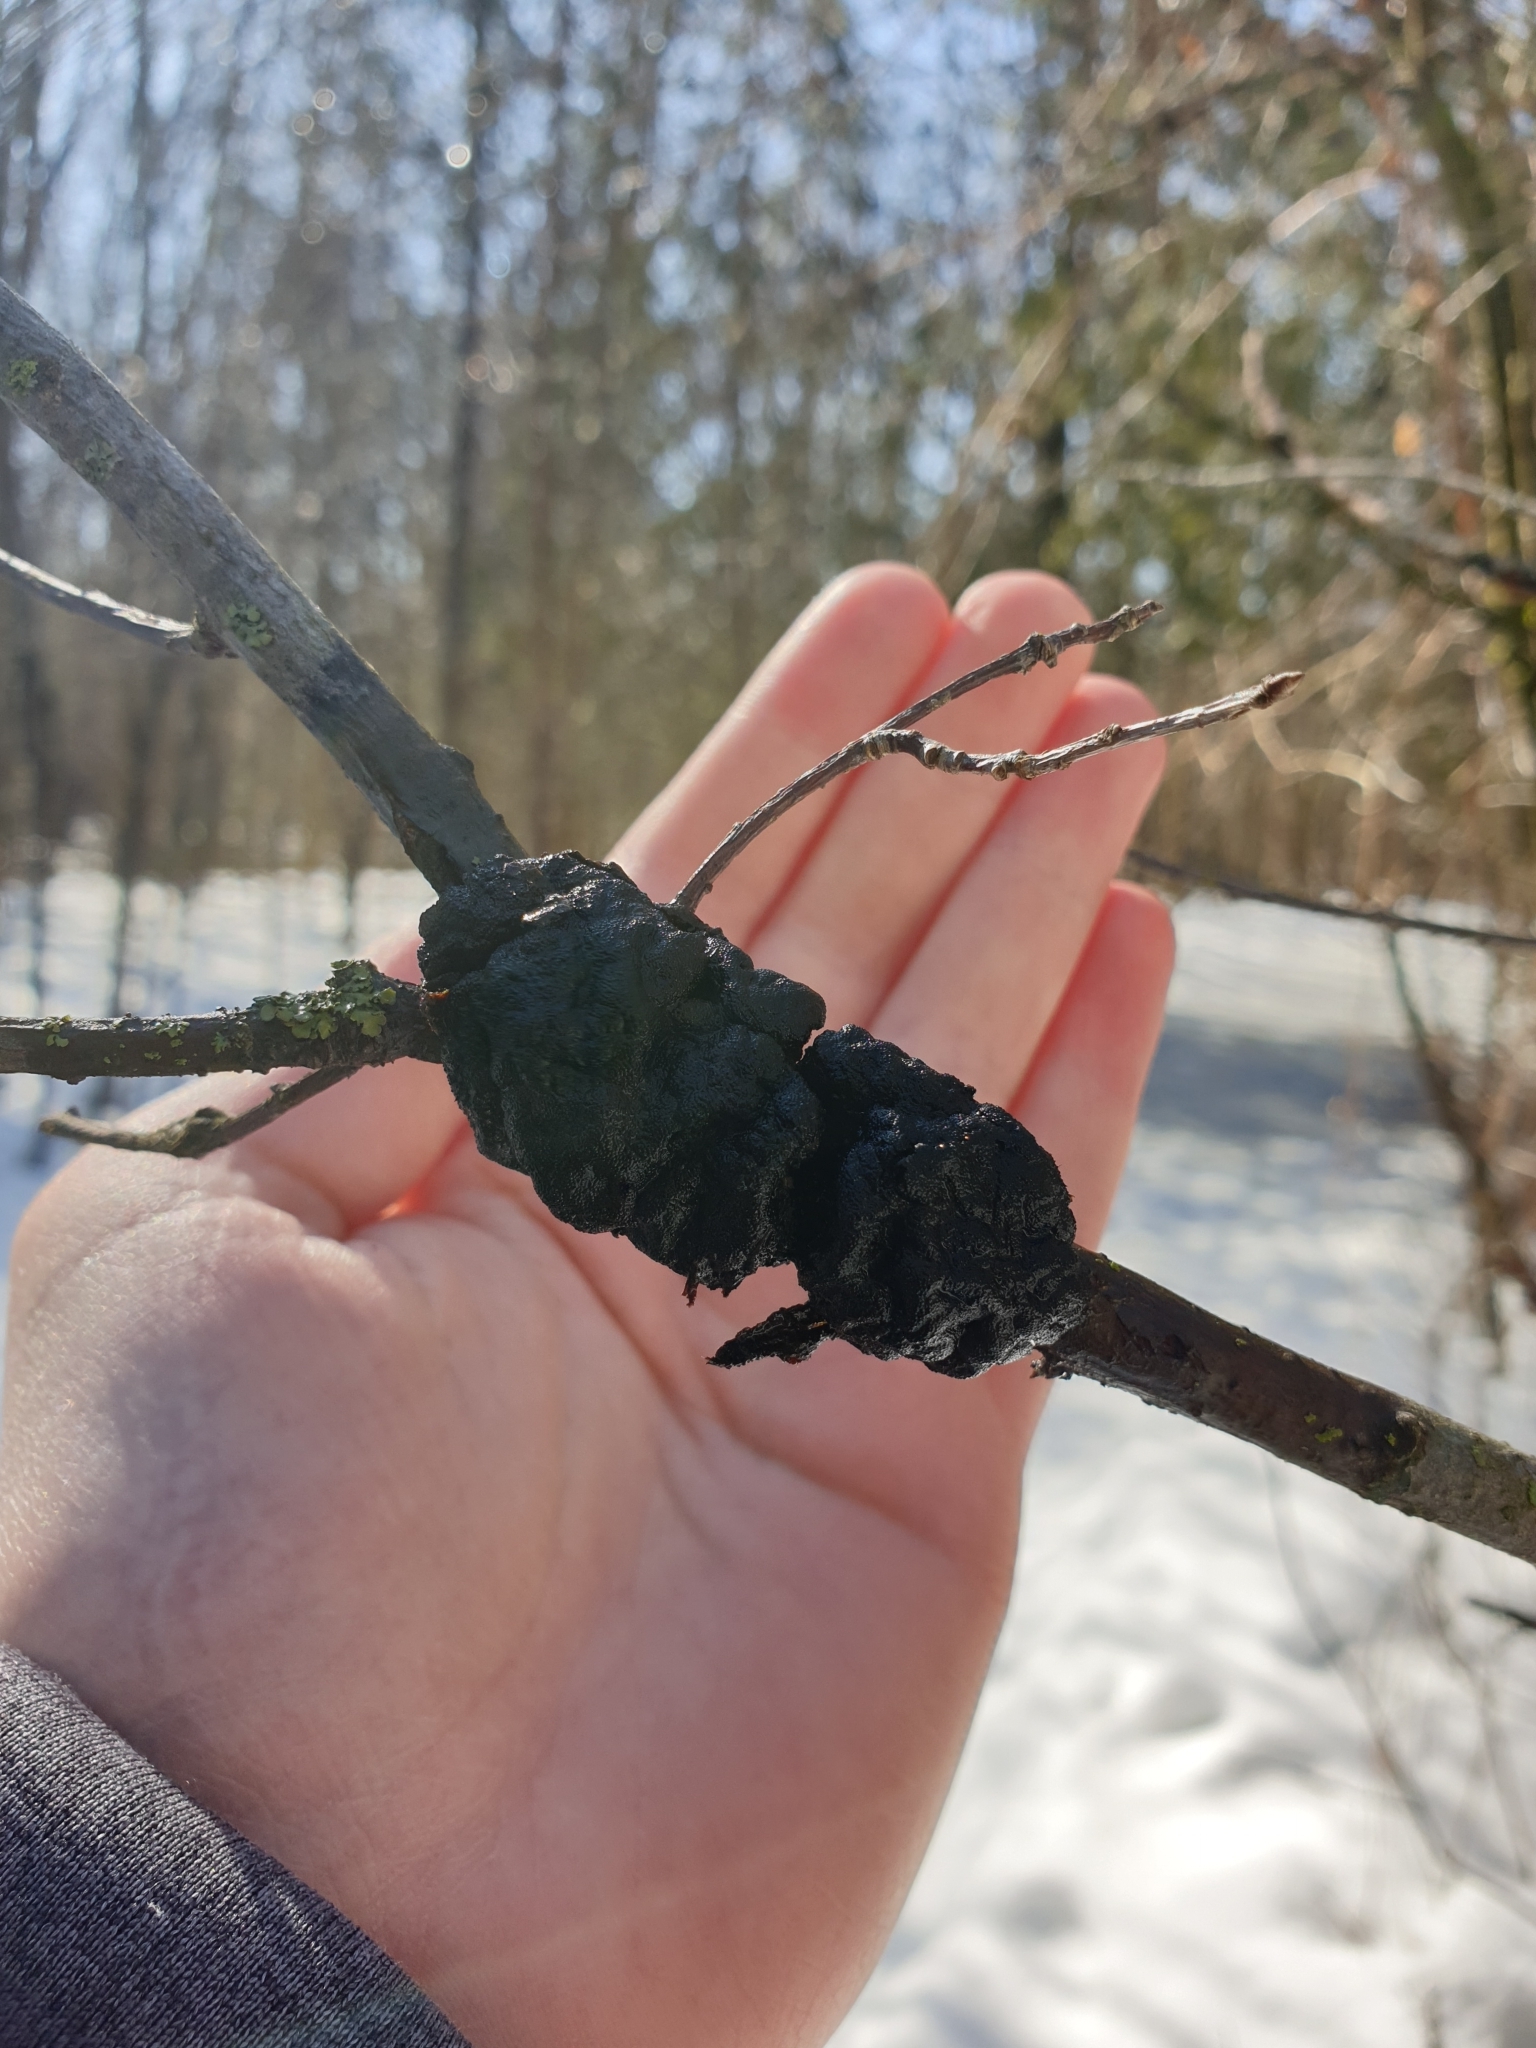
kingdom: Fungi
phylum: Ascomycota
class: Dothideomycetes
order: Venturiales
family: Venturiaceae
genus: Apiosporina
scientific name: Apiosporina morbosa
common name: Black knot
